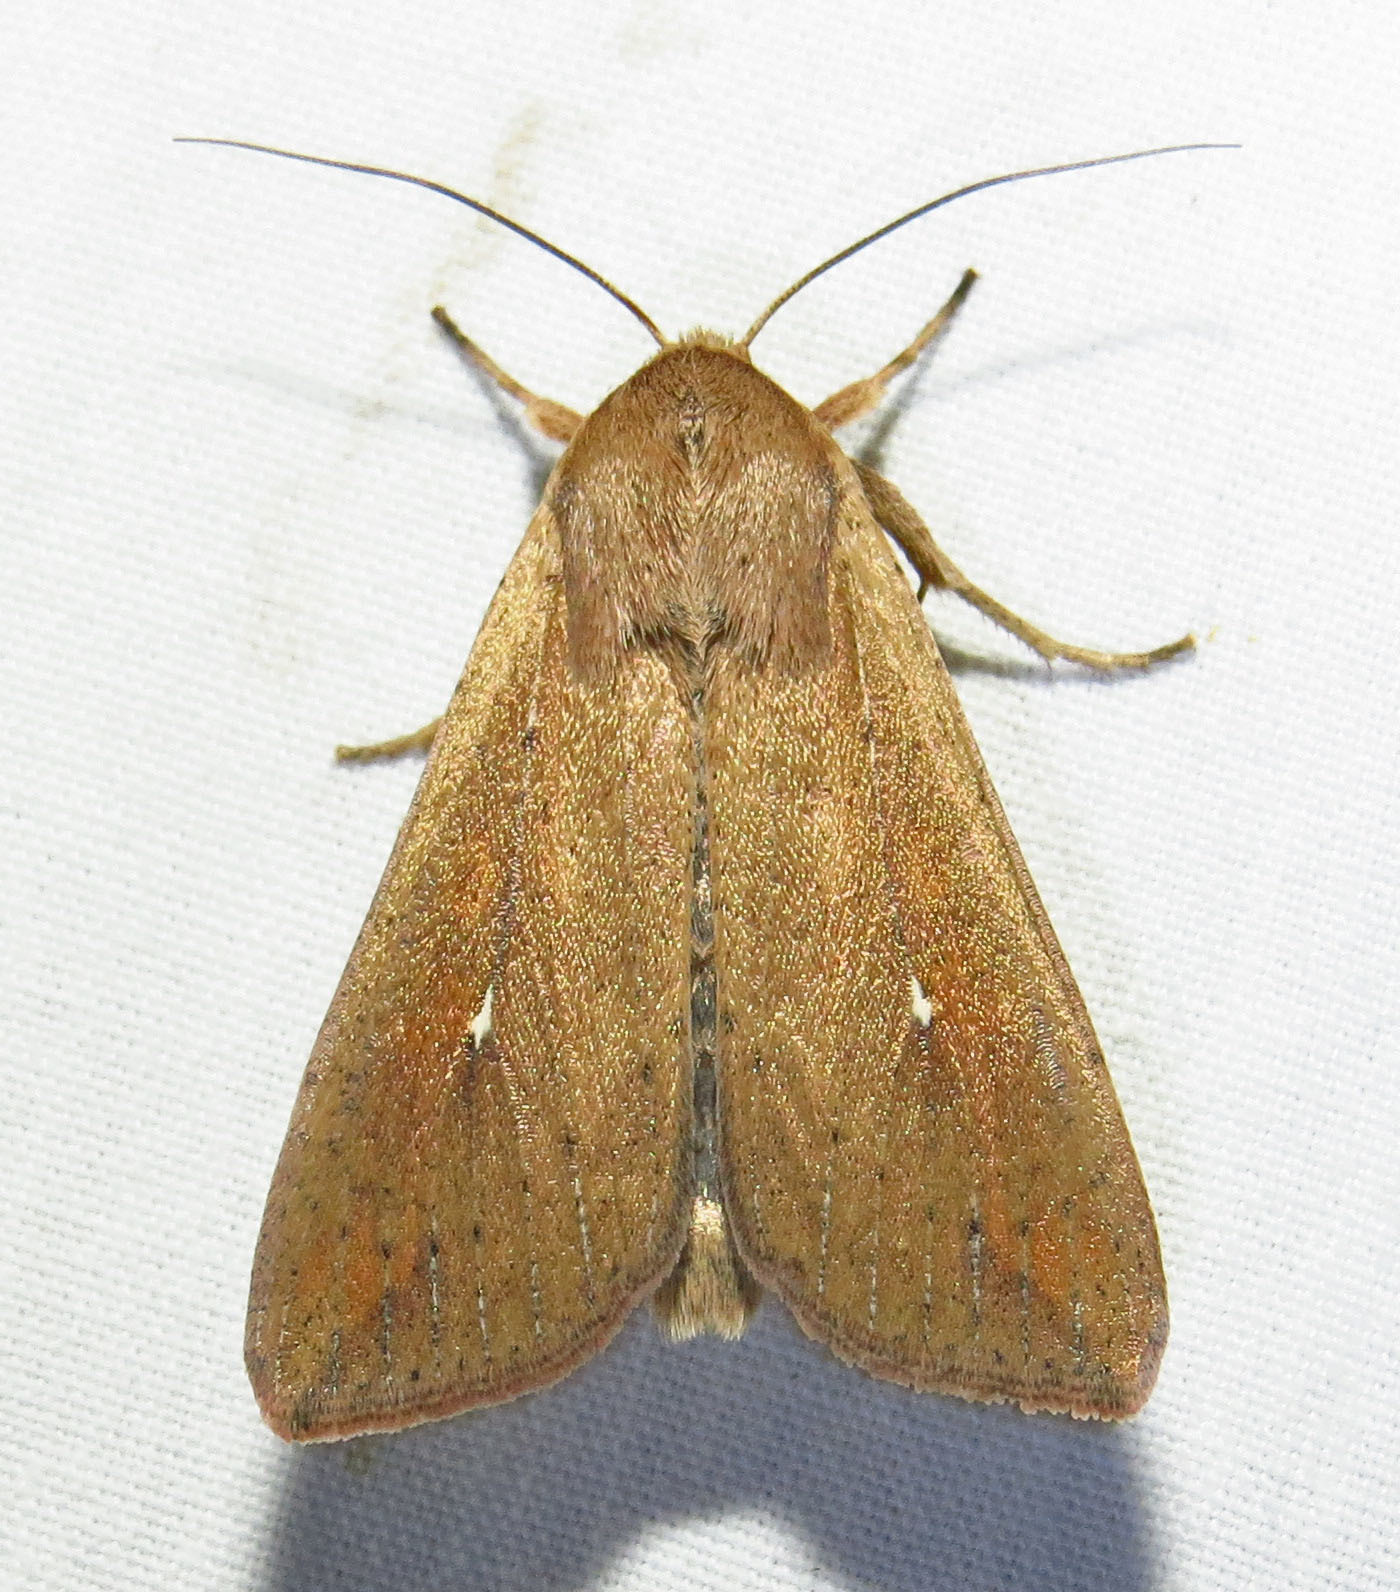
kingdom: Animalia
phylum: Arthropoda
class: Insecta
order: Lepidoptera
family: Noctuidae
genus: Mythimna
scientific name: Mythimna unipuncta
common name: White-speck
